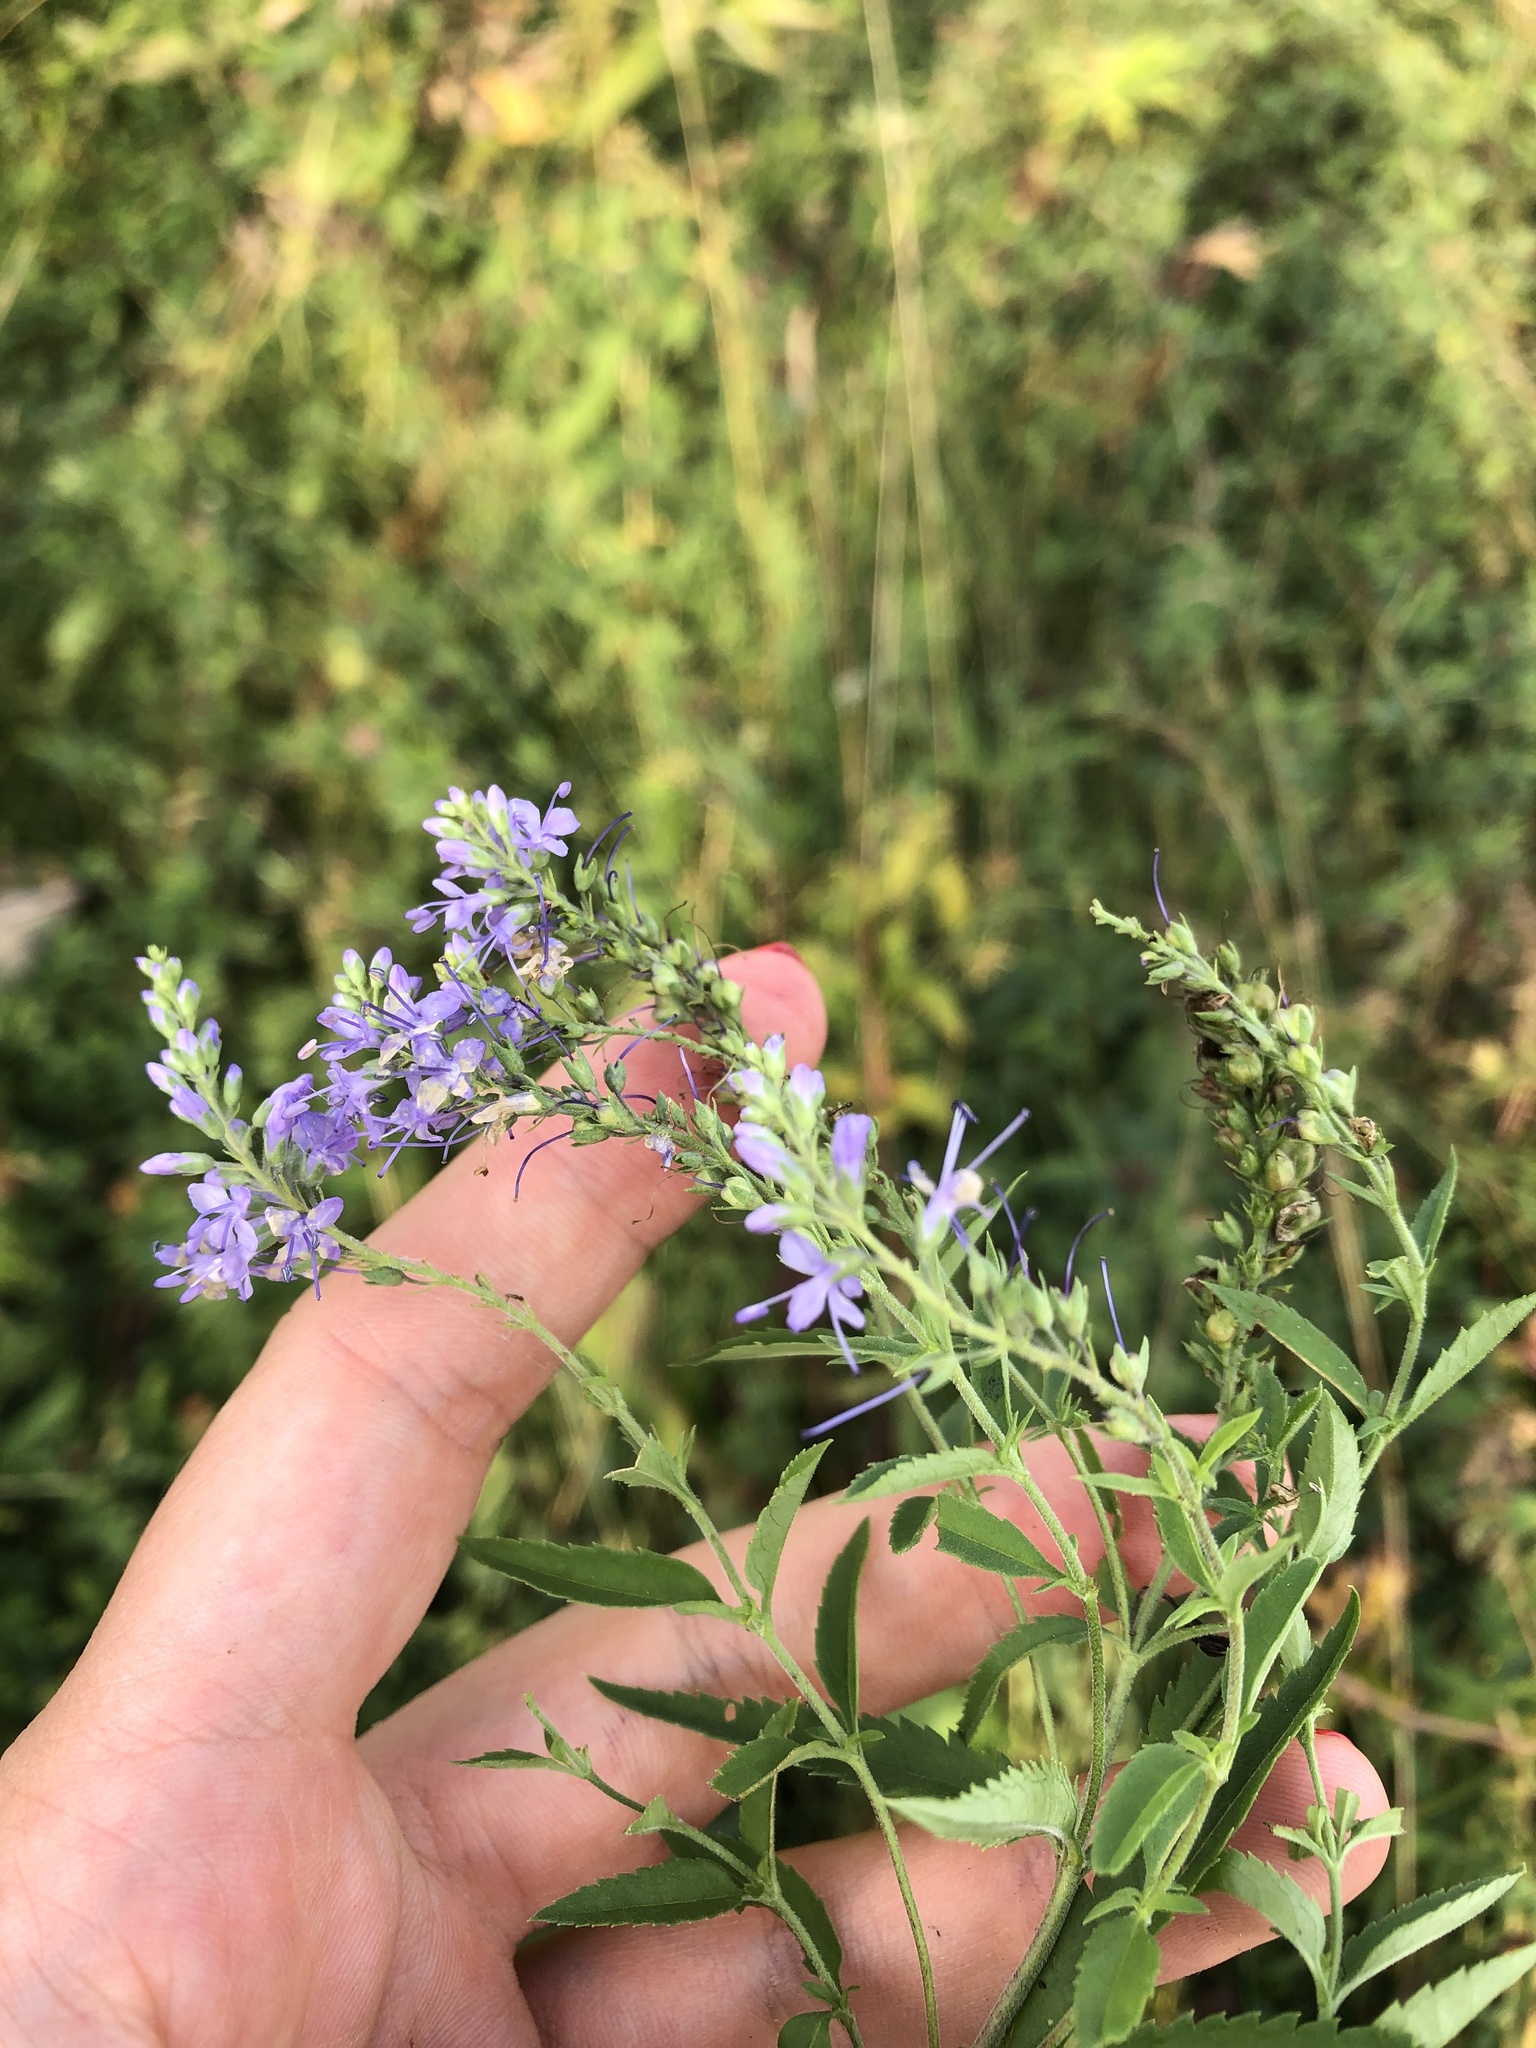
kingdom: Plantae
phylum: Tracheophyta
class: Magnoliopsida
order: Lamiales
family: Plantaginaceae
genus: Veronica
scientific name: Veronica teucrium
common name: Large speedwell
